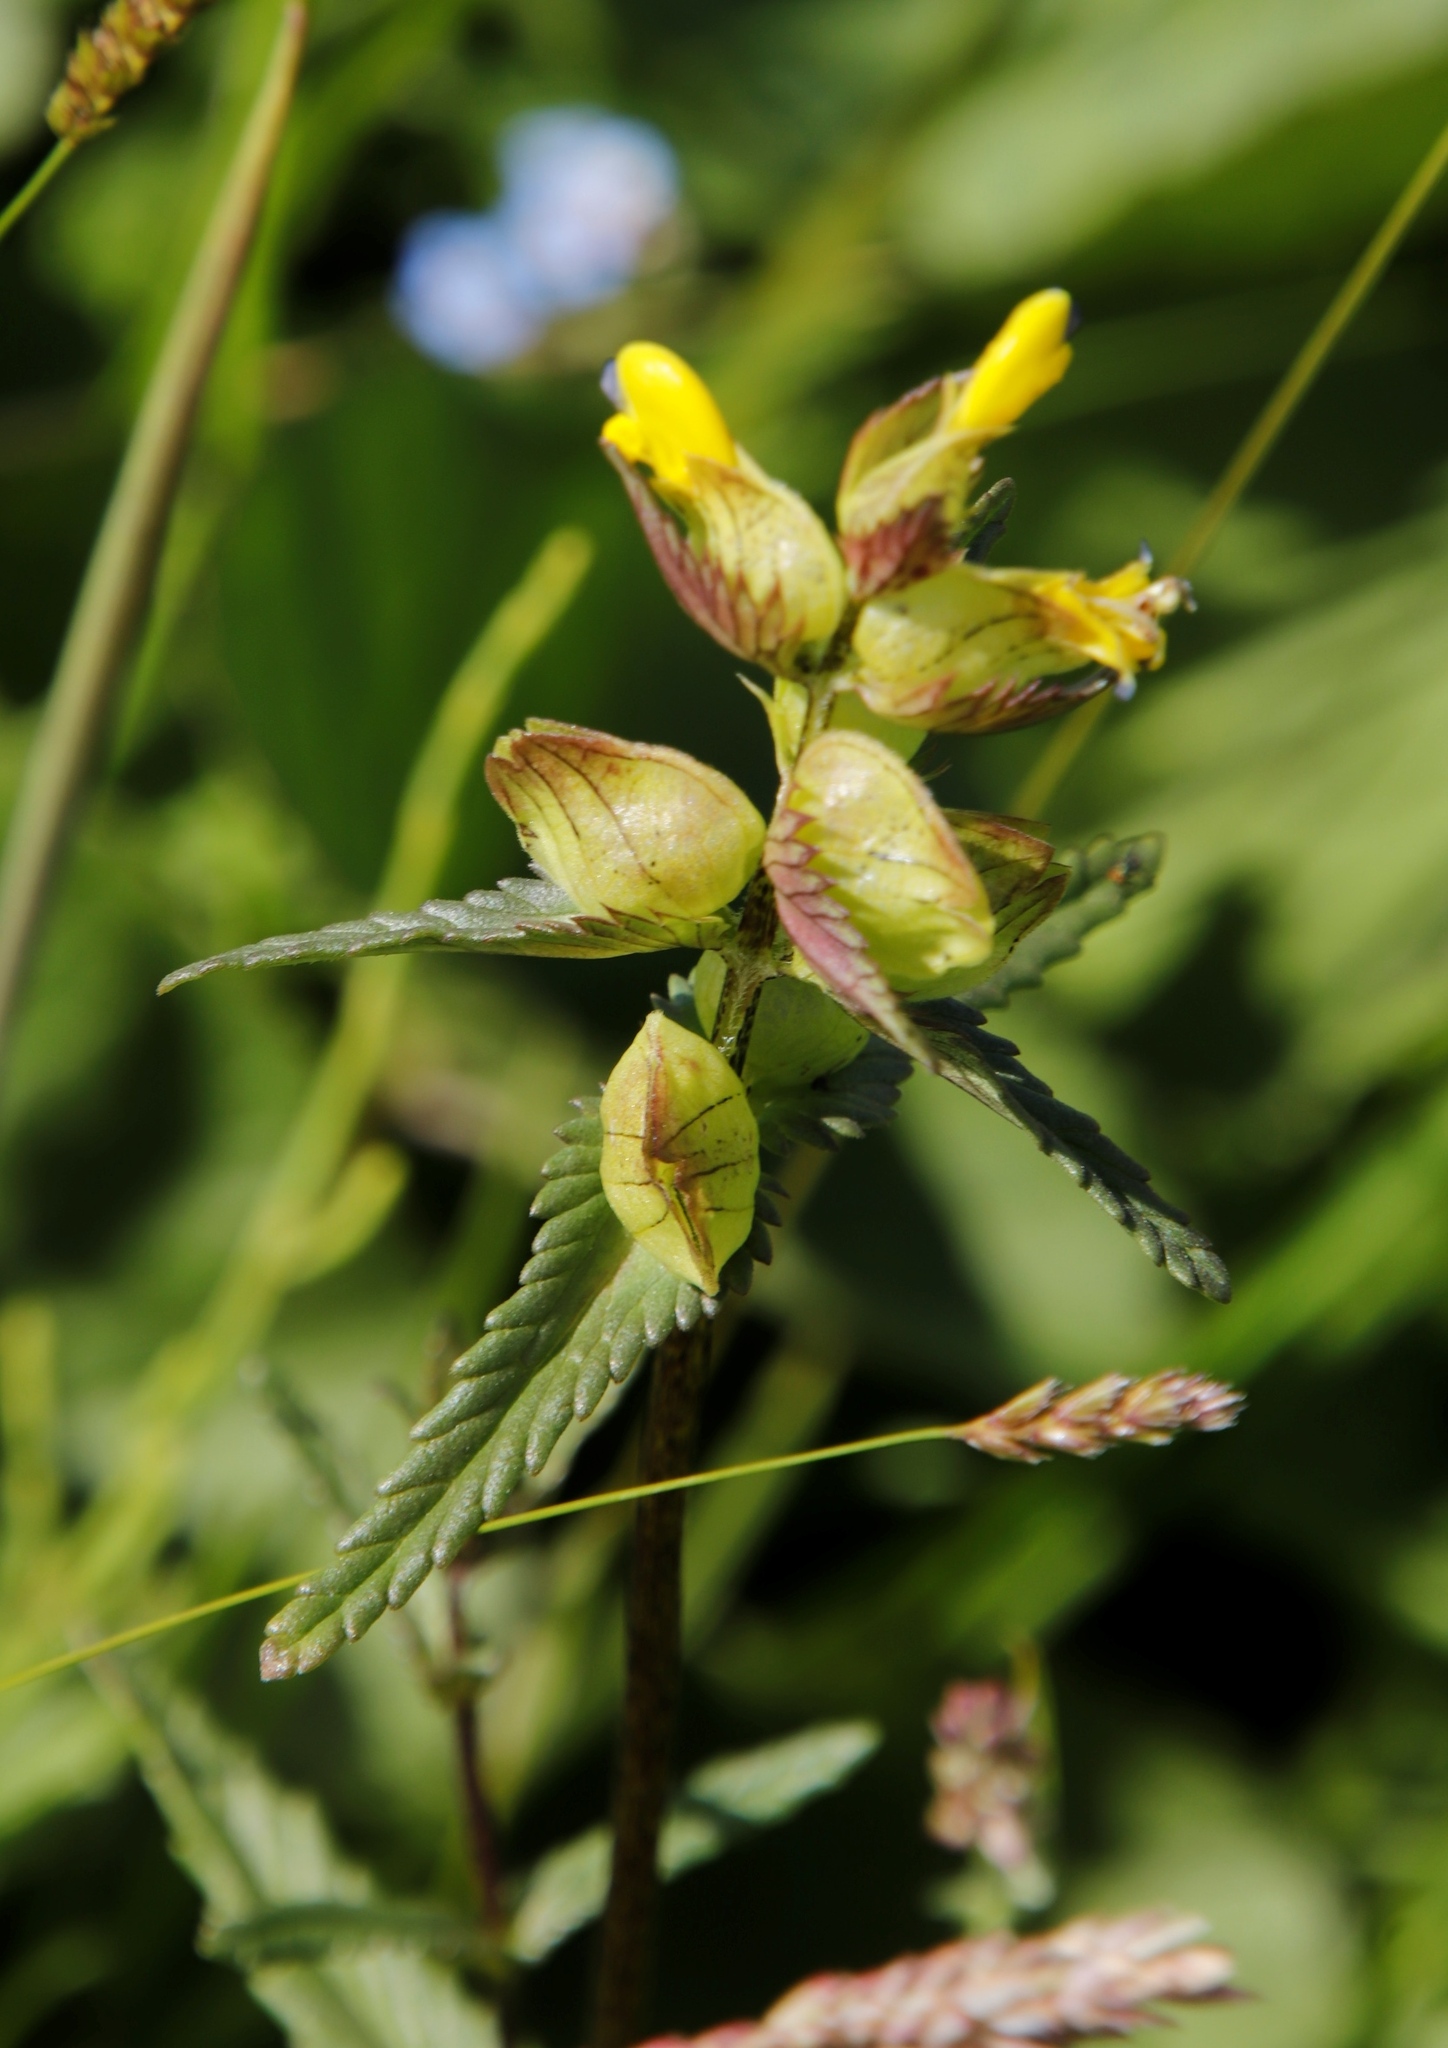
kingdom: Plantae
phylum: Tracheophyta
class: Magnoliopsida
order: Lamiales
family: Orobanchaceae
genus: Rhinanthus
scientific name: Rhinanthus minor
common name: Yellow-rattle
